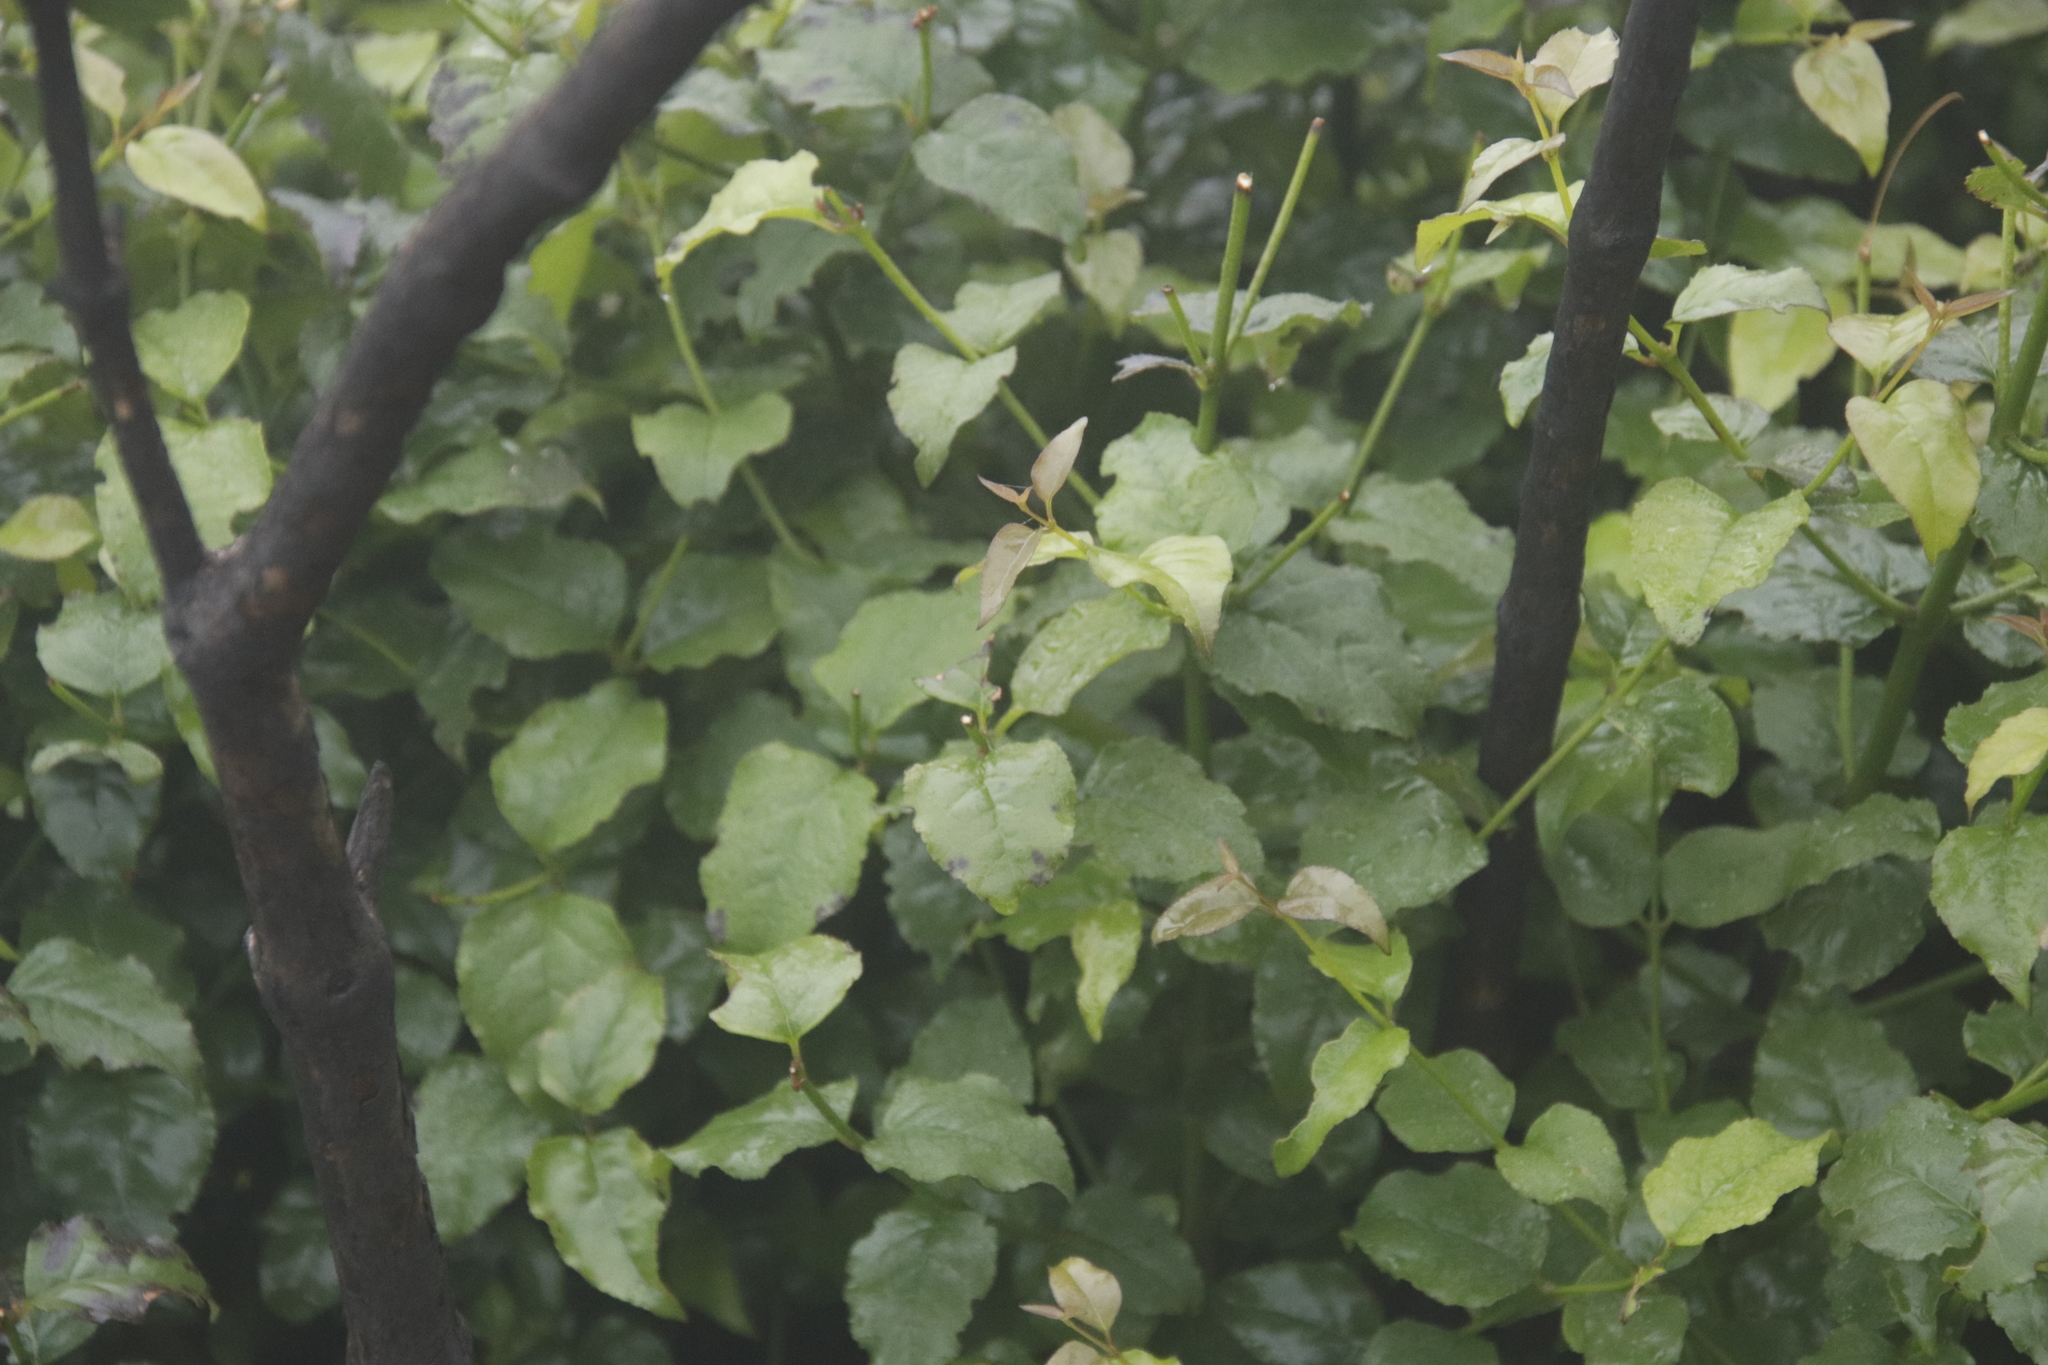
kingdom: Plantae
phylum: Tracheophyta
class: Magnoliopsida
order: Lamiales
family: Stilbaceae
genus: Halleria
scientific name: Halleria lucida
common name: Tree fuschia
